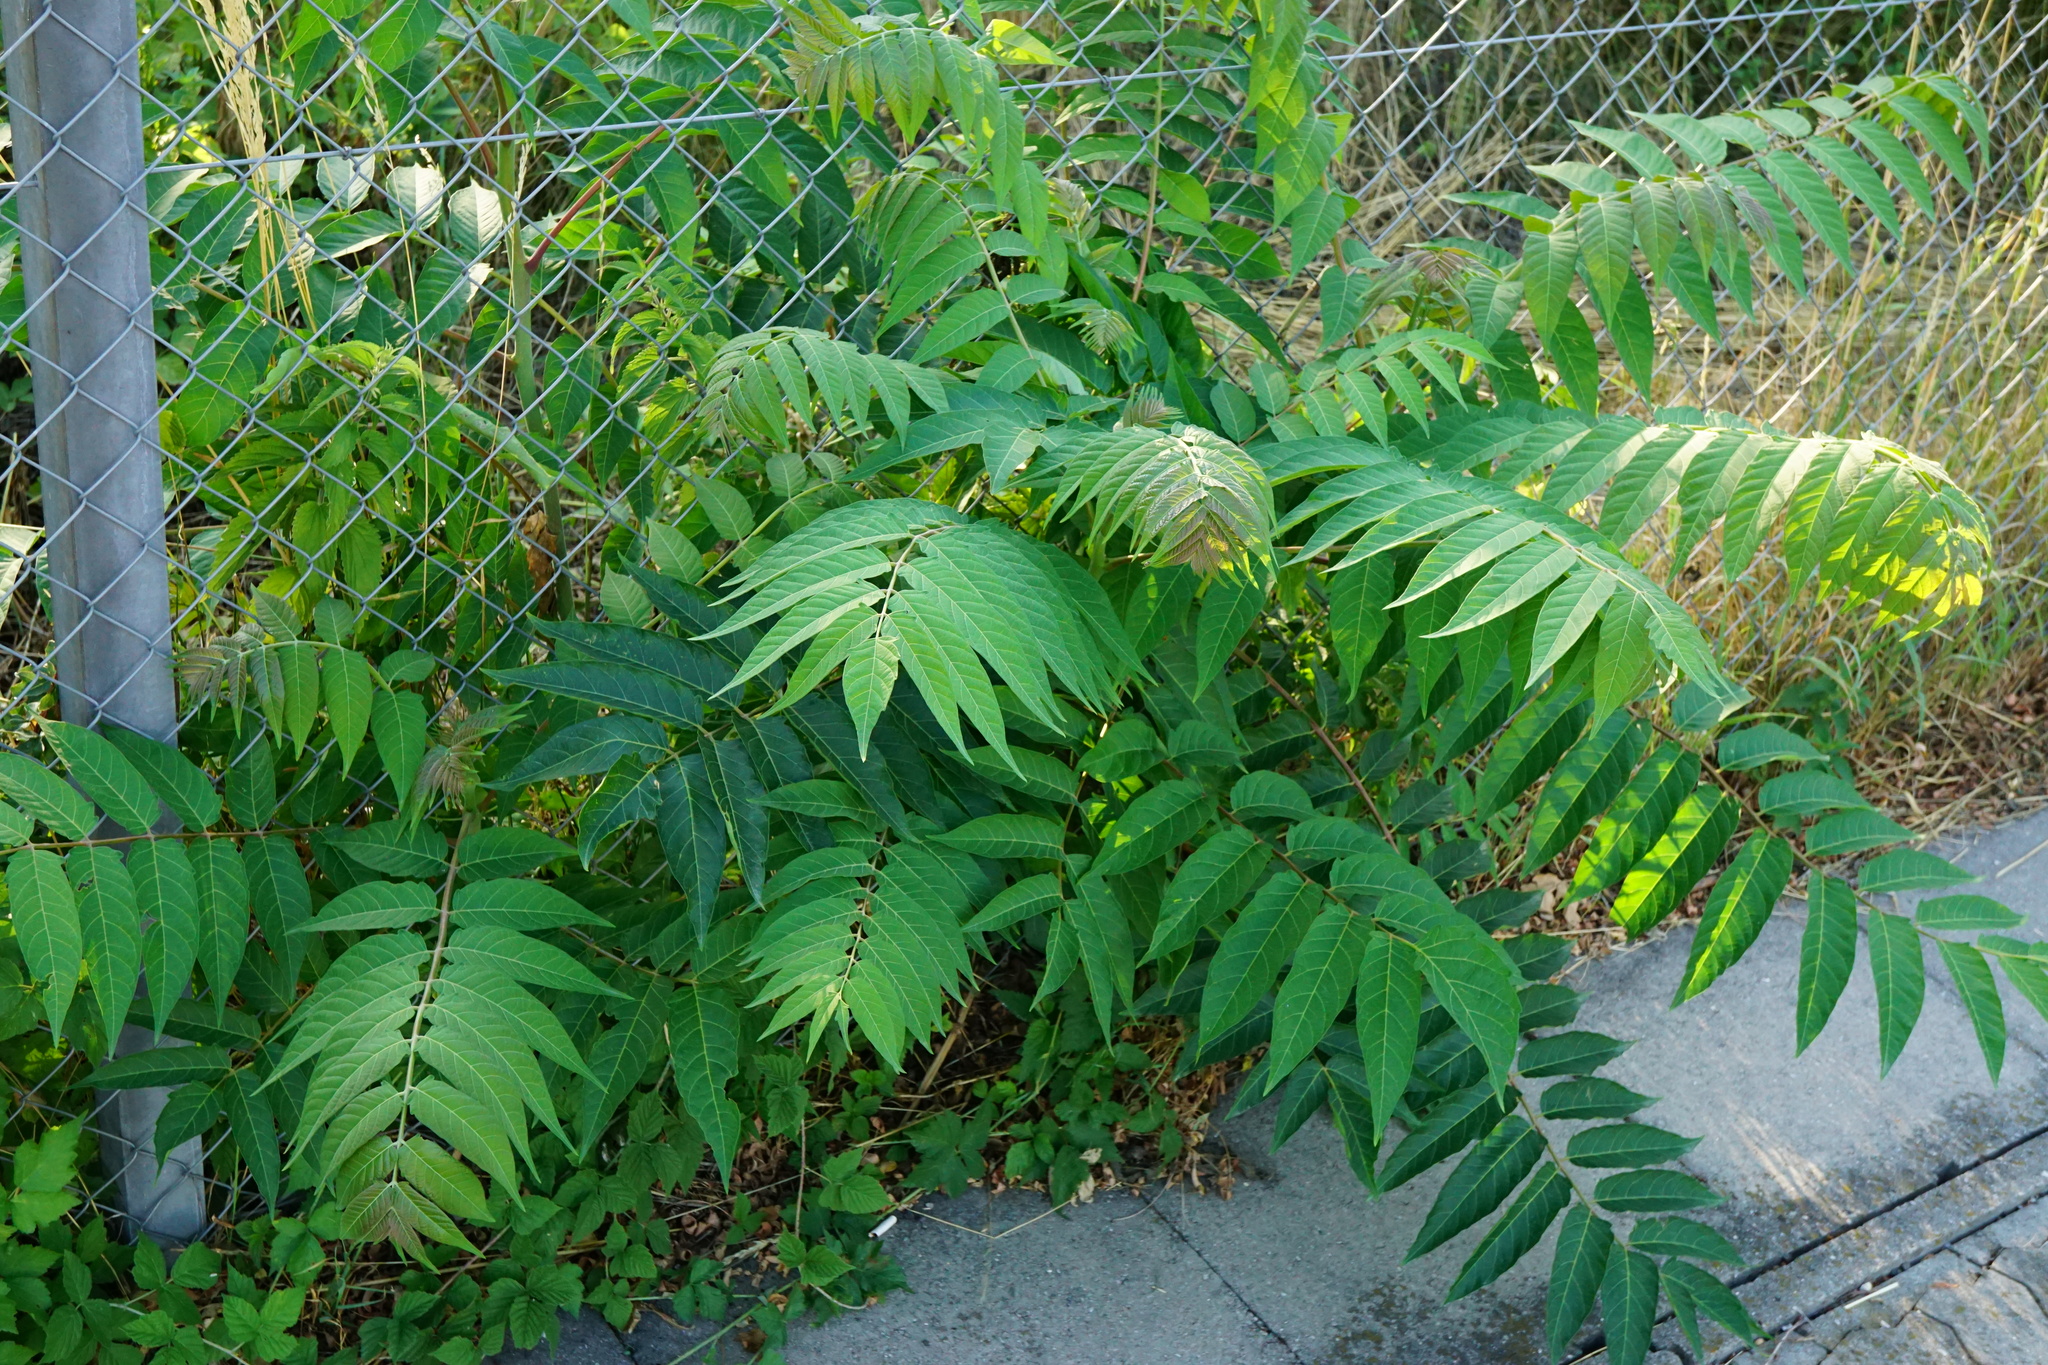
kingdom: Plantae
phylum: Tracheophyta
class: Magnoliopsida
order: Sapindales
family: Simaroubaceae
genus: Ailanthus
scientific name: Ailanthus altissima
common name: Tree-of-heaven
